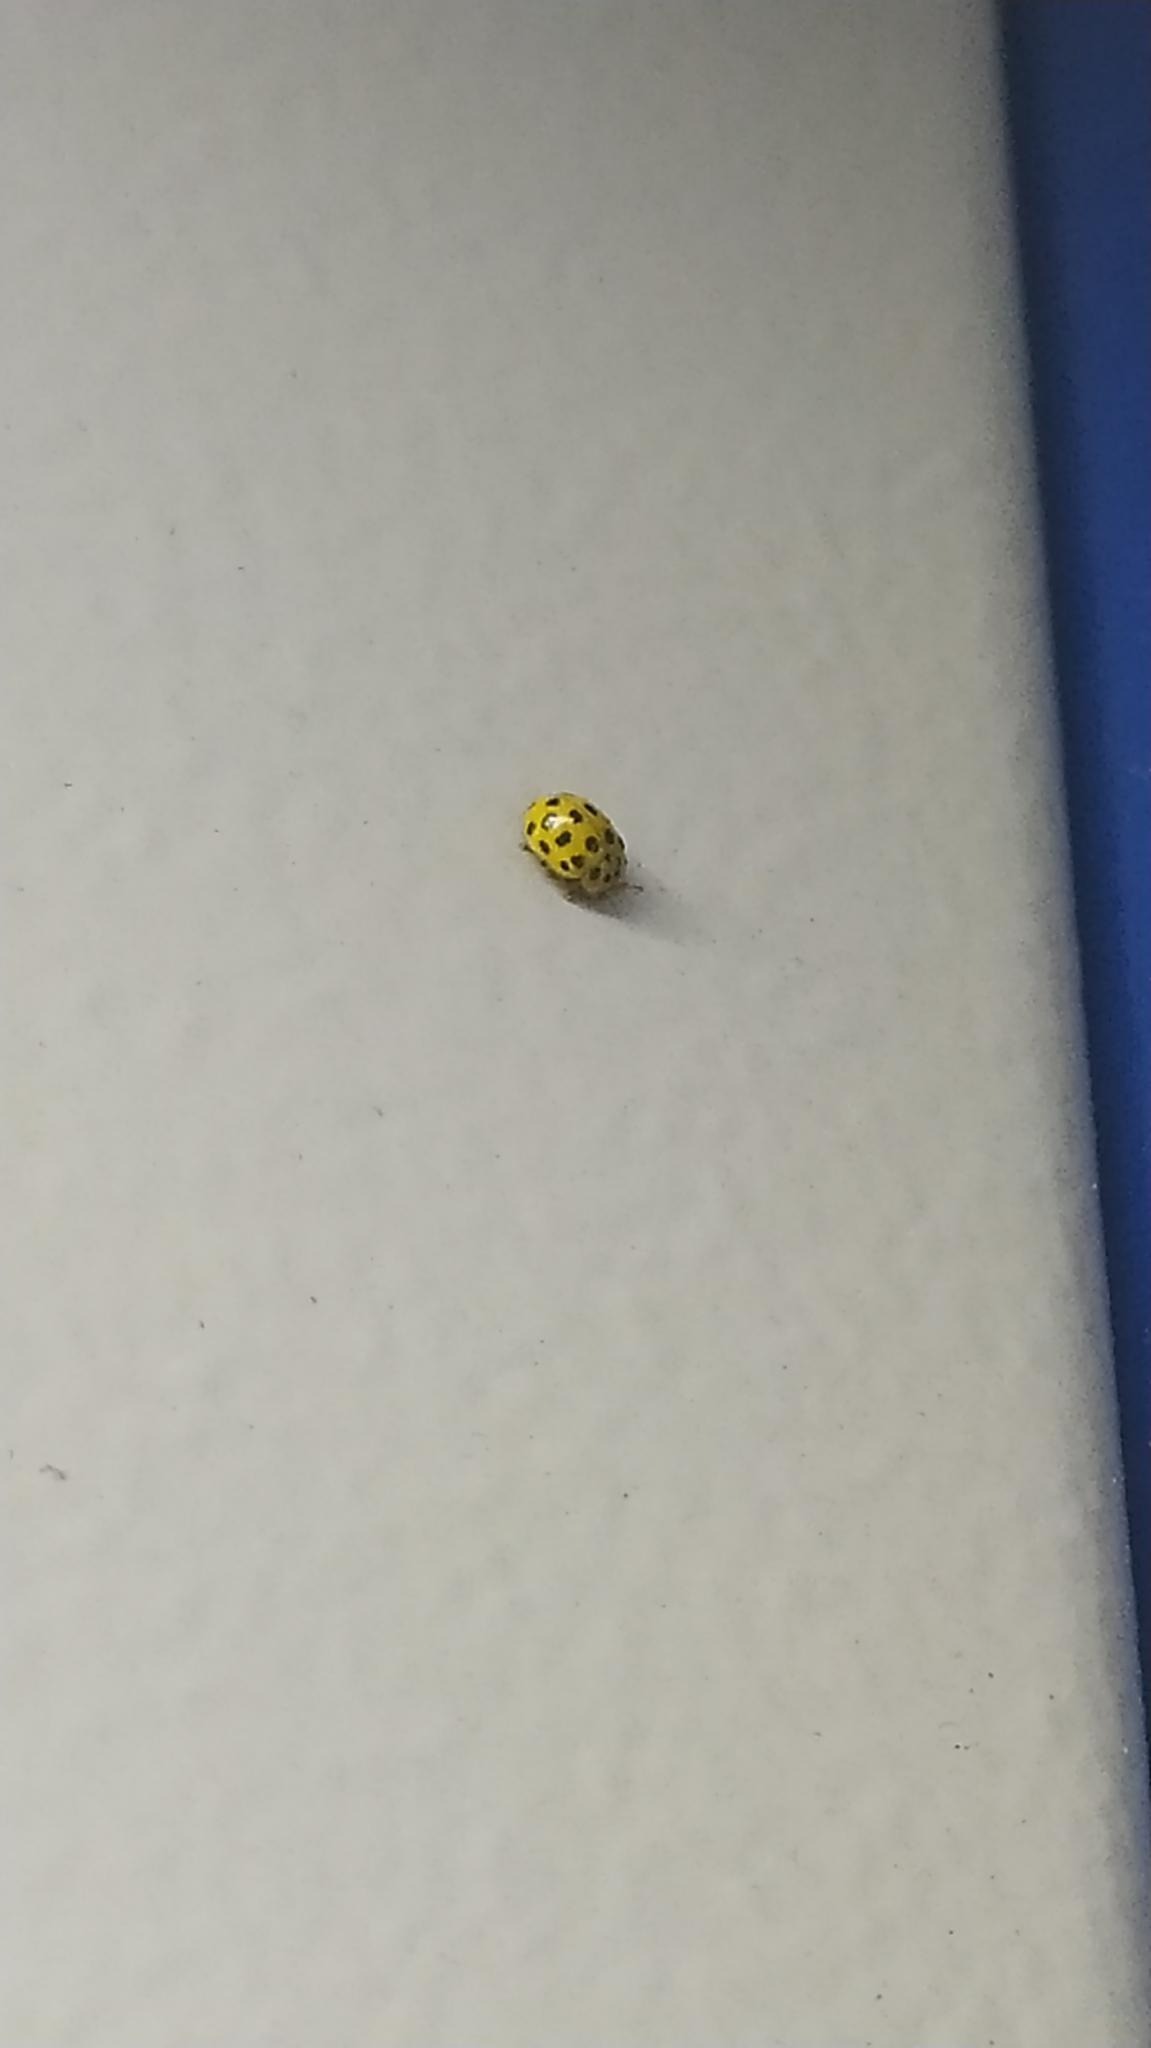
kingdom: Animalia
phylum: Arthropoda
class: Insecta
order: Coleoptera
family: Coccinellidae
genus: Psyllobora
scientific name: Psyllobora vigintiduopunctata
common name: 22-spot ladybird
